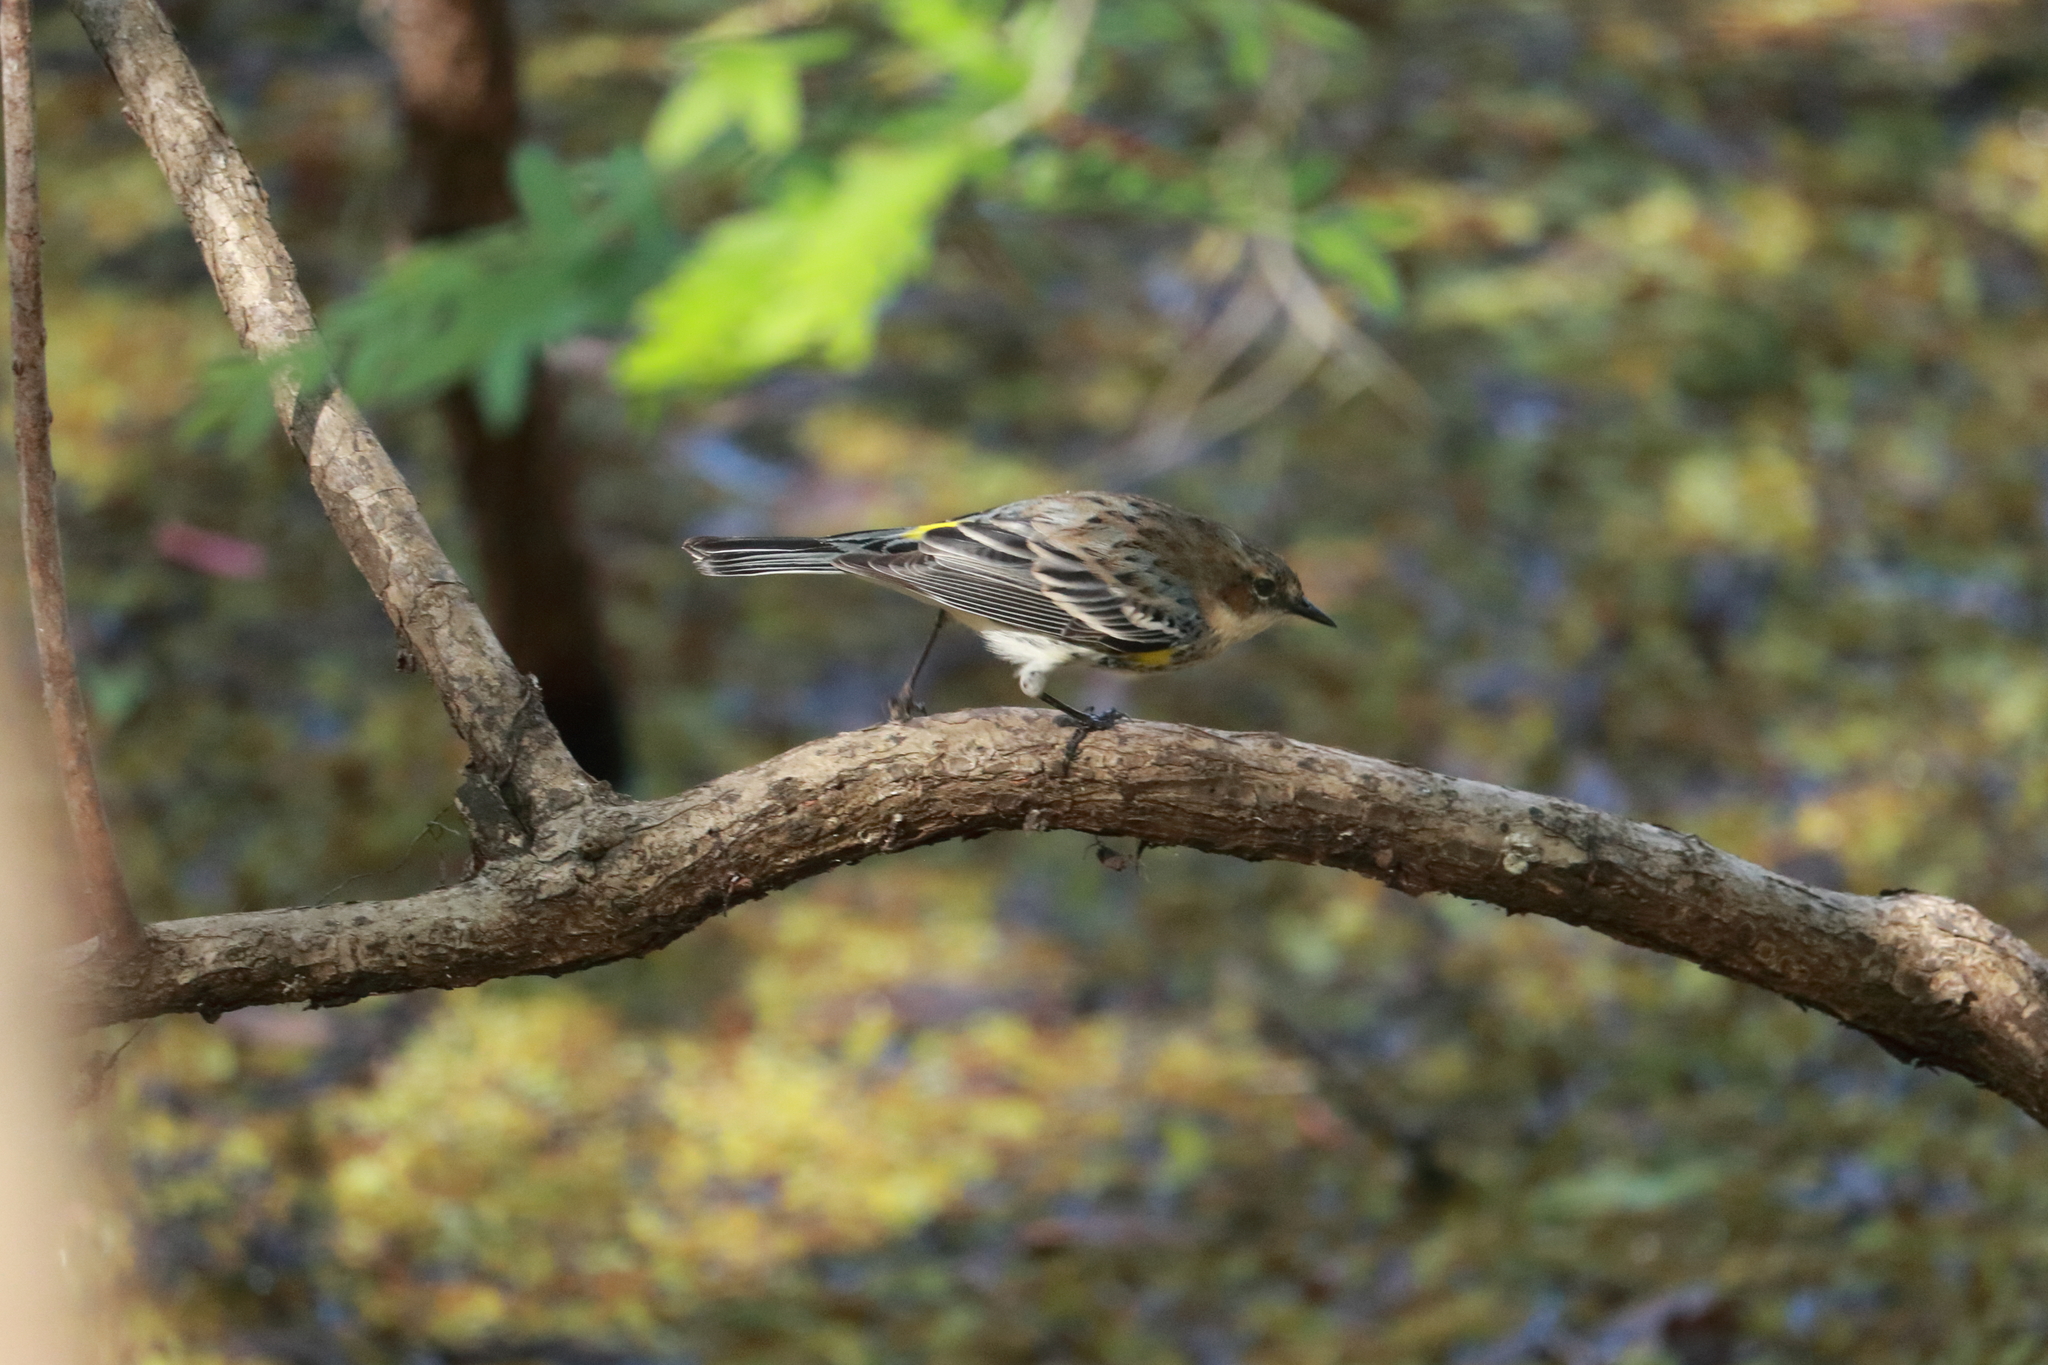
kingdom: Animalia
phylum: Chordata
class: Aves
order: Passeriformes
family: Parulidae
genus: Setophaga
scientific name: Setophaga coronata
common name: Myrtle warbler
